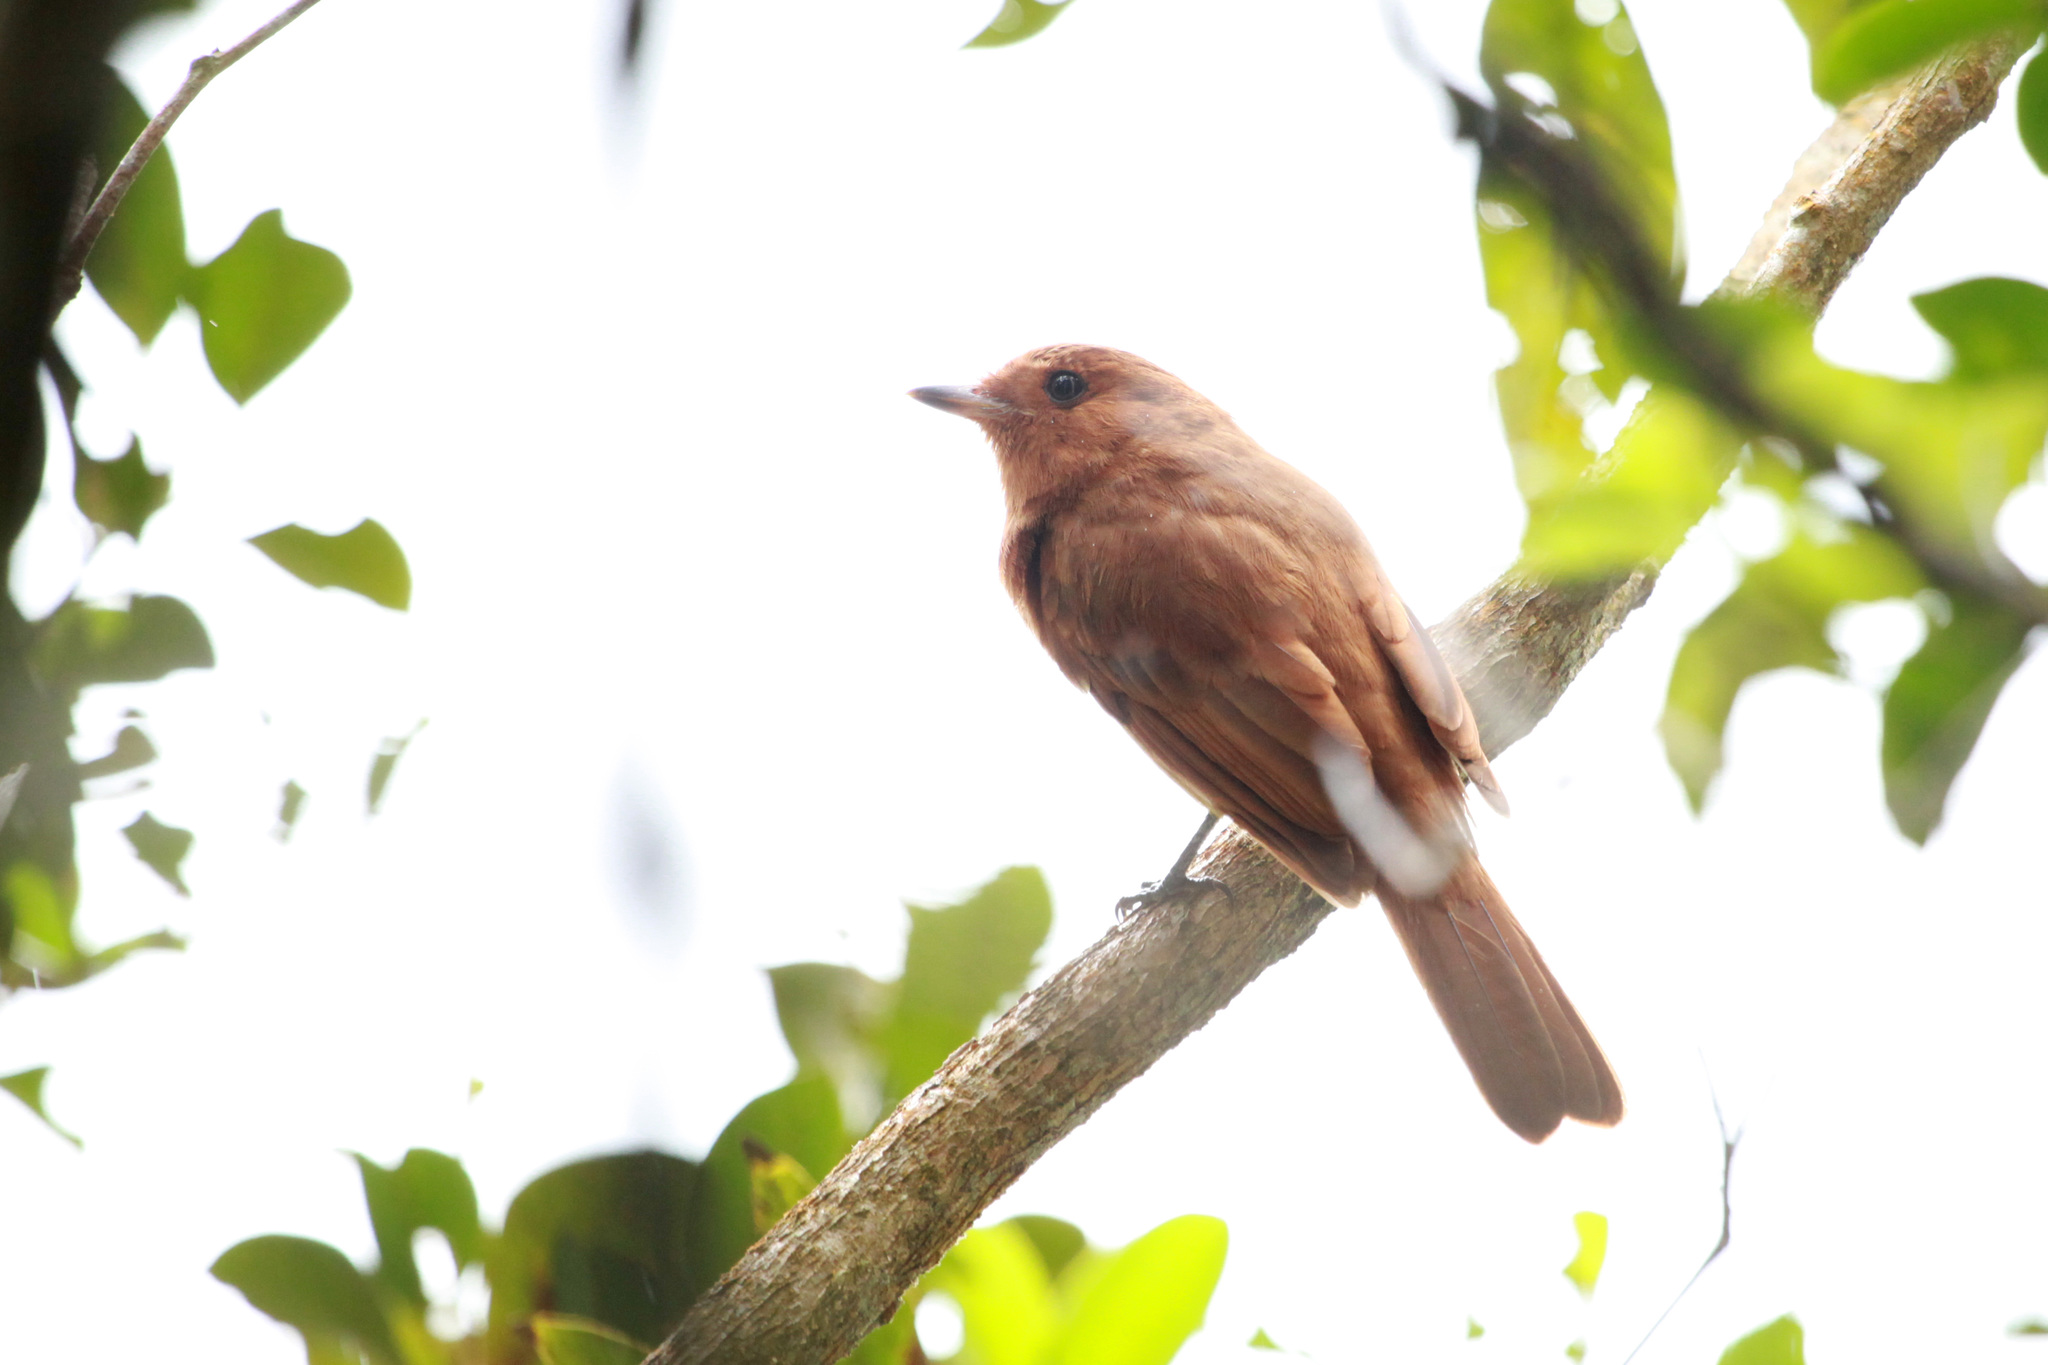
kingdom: Animalia
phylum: Chordata
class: Aves
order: Passeriformes
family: Tyrannidae
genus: Rhytipterna
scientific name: Rhytipterna holerythra
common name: Rufous mourner
